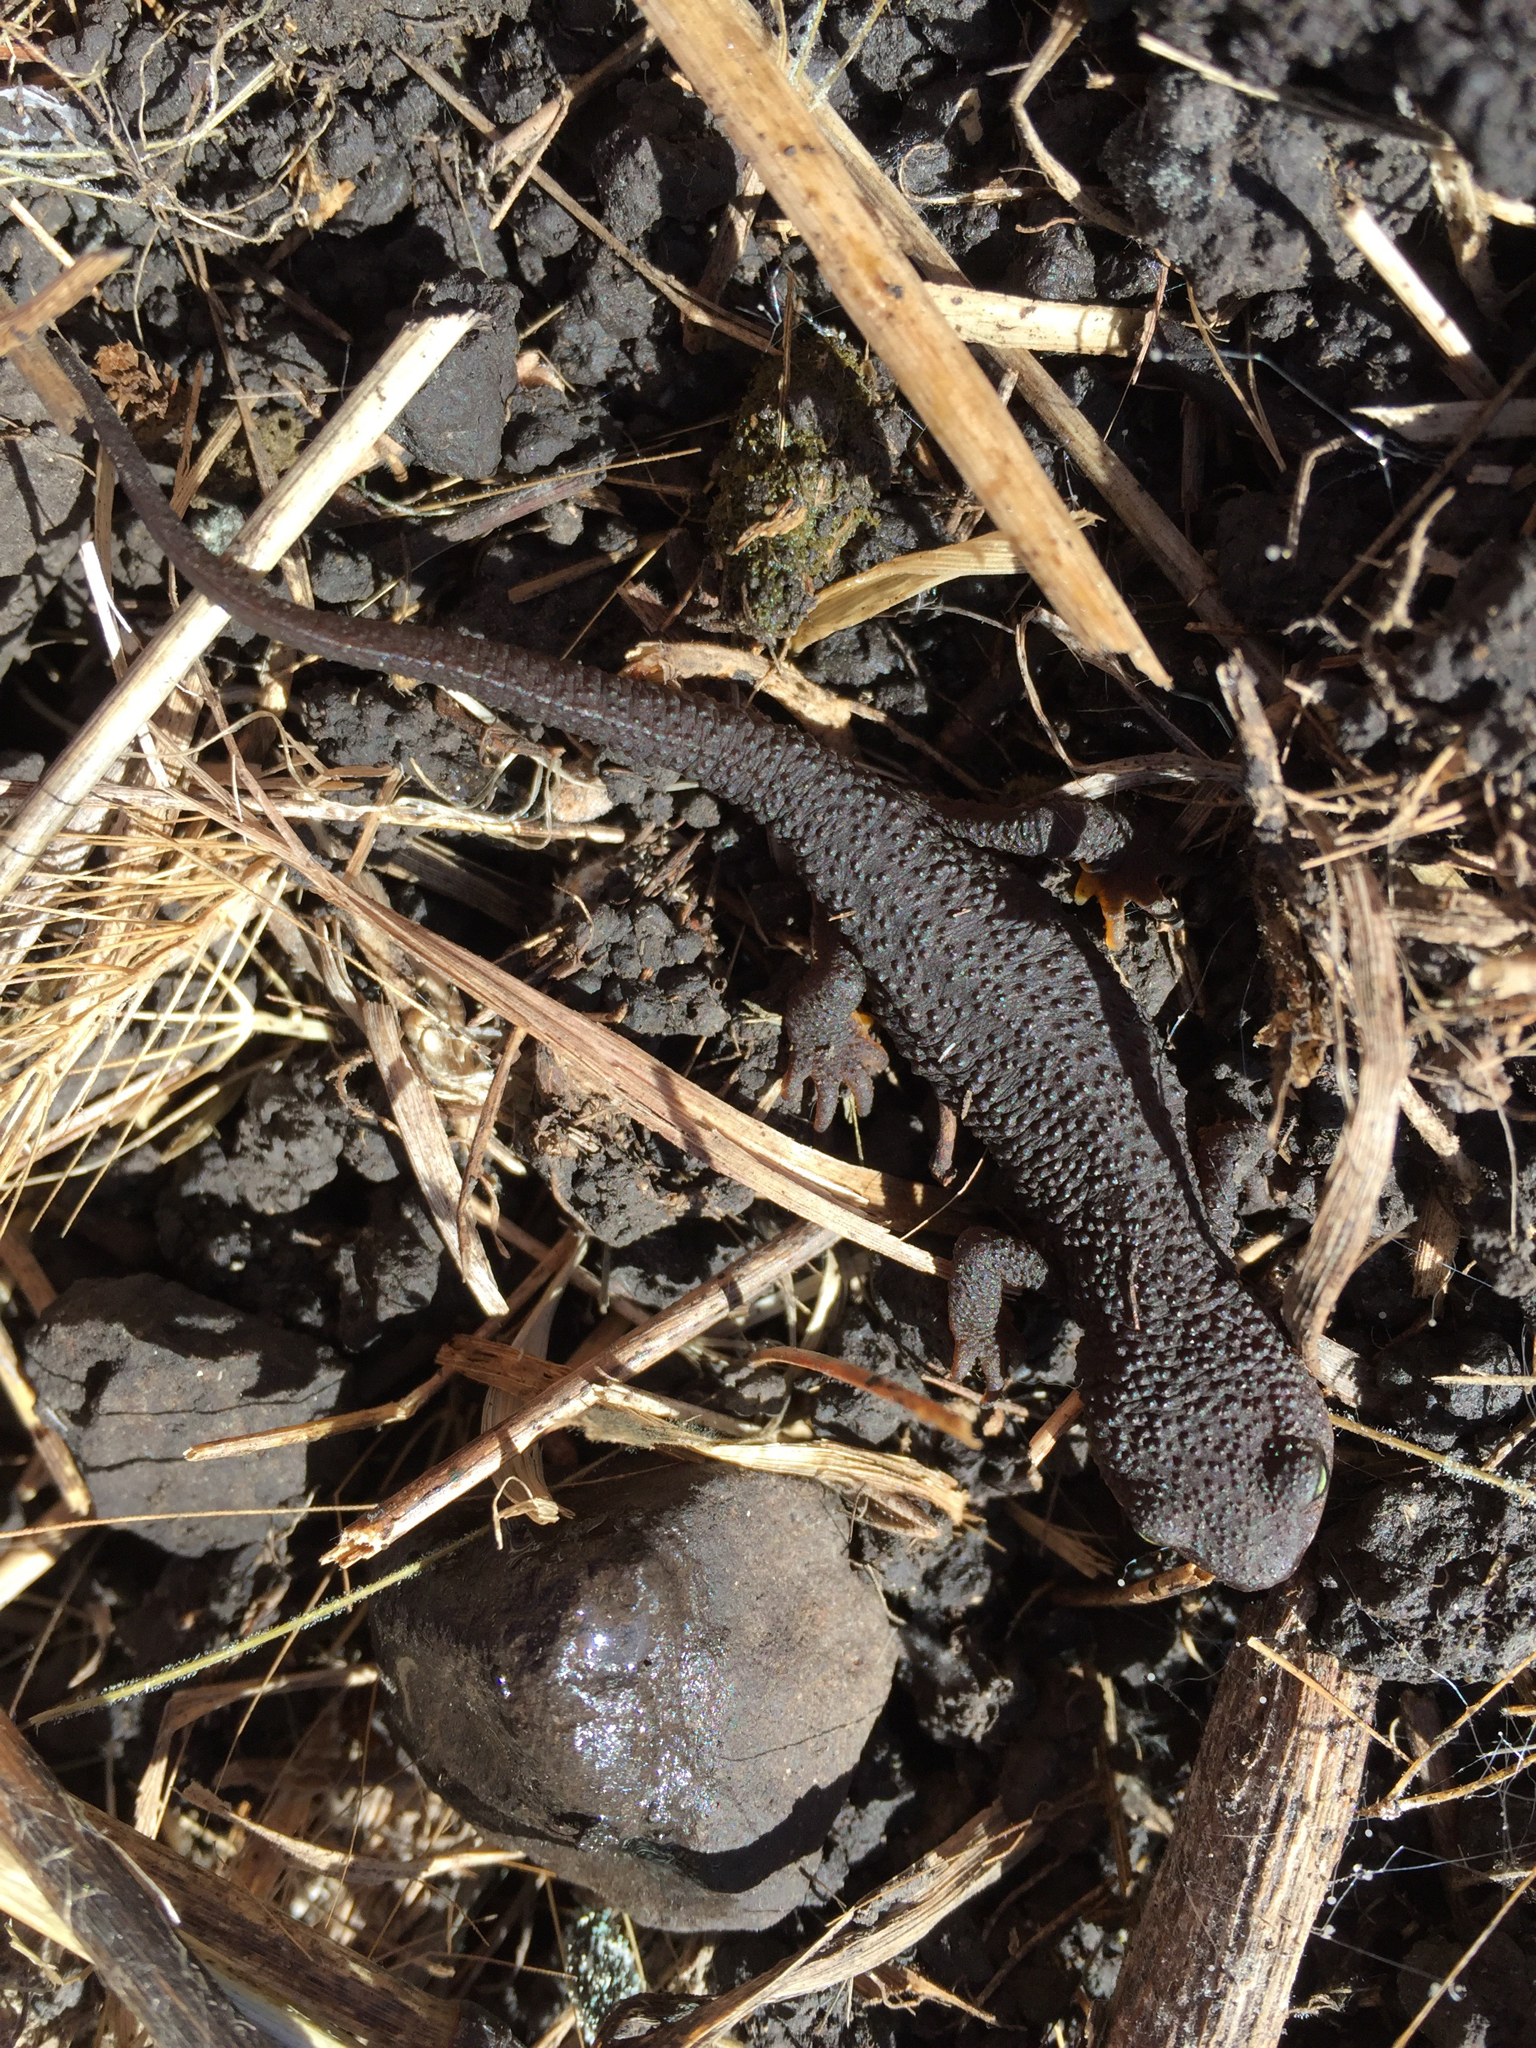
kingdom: Animalia
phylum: Chordata
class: Amphibia
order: Caudata
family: Salamandridae
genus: Taricha
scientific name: Taricha granulosa
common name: Roughskin newt
